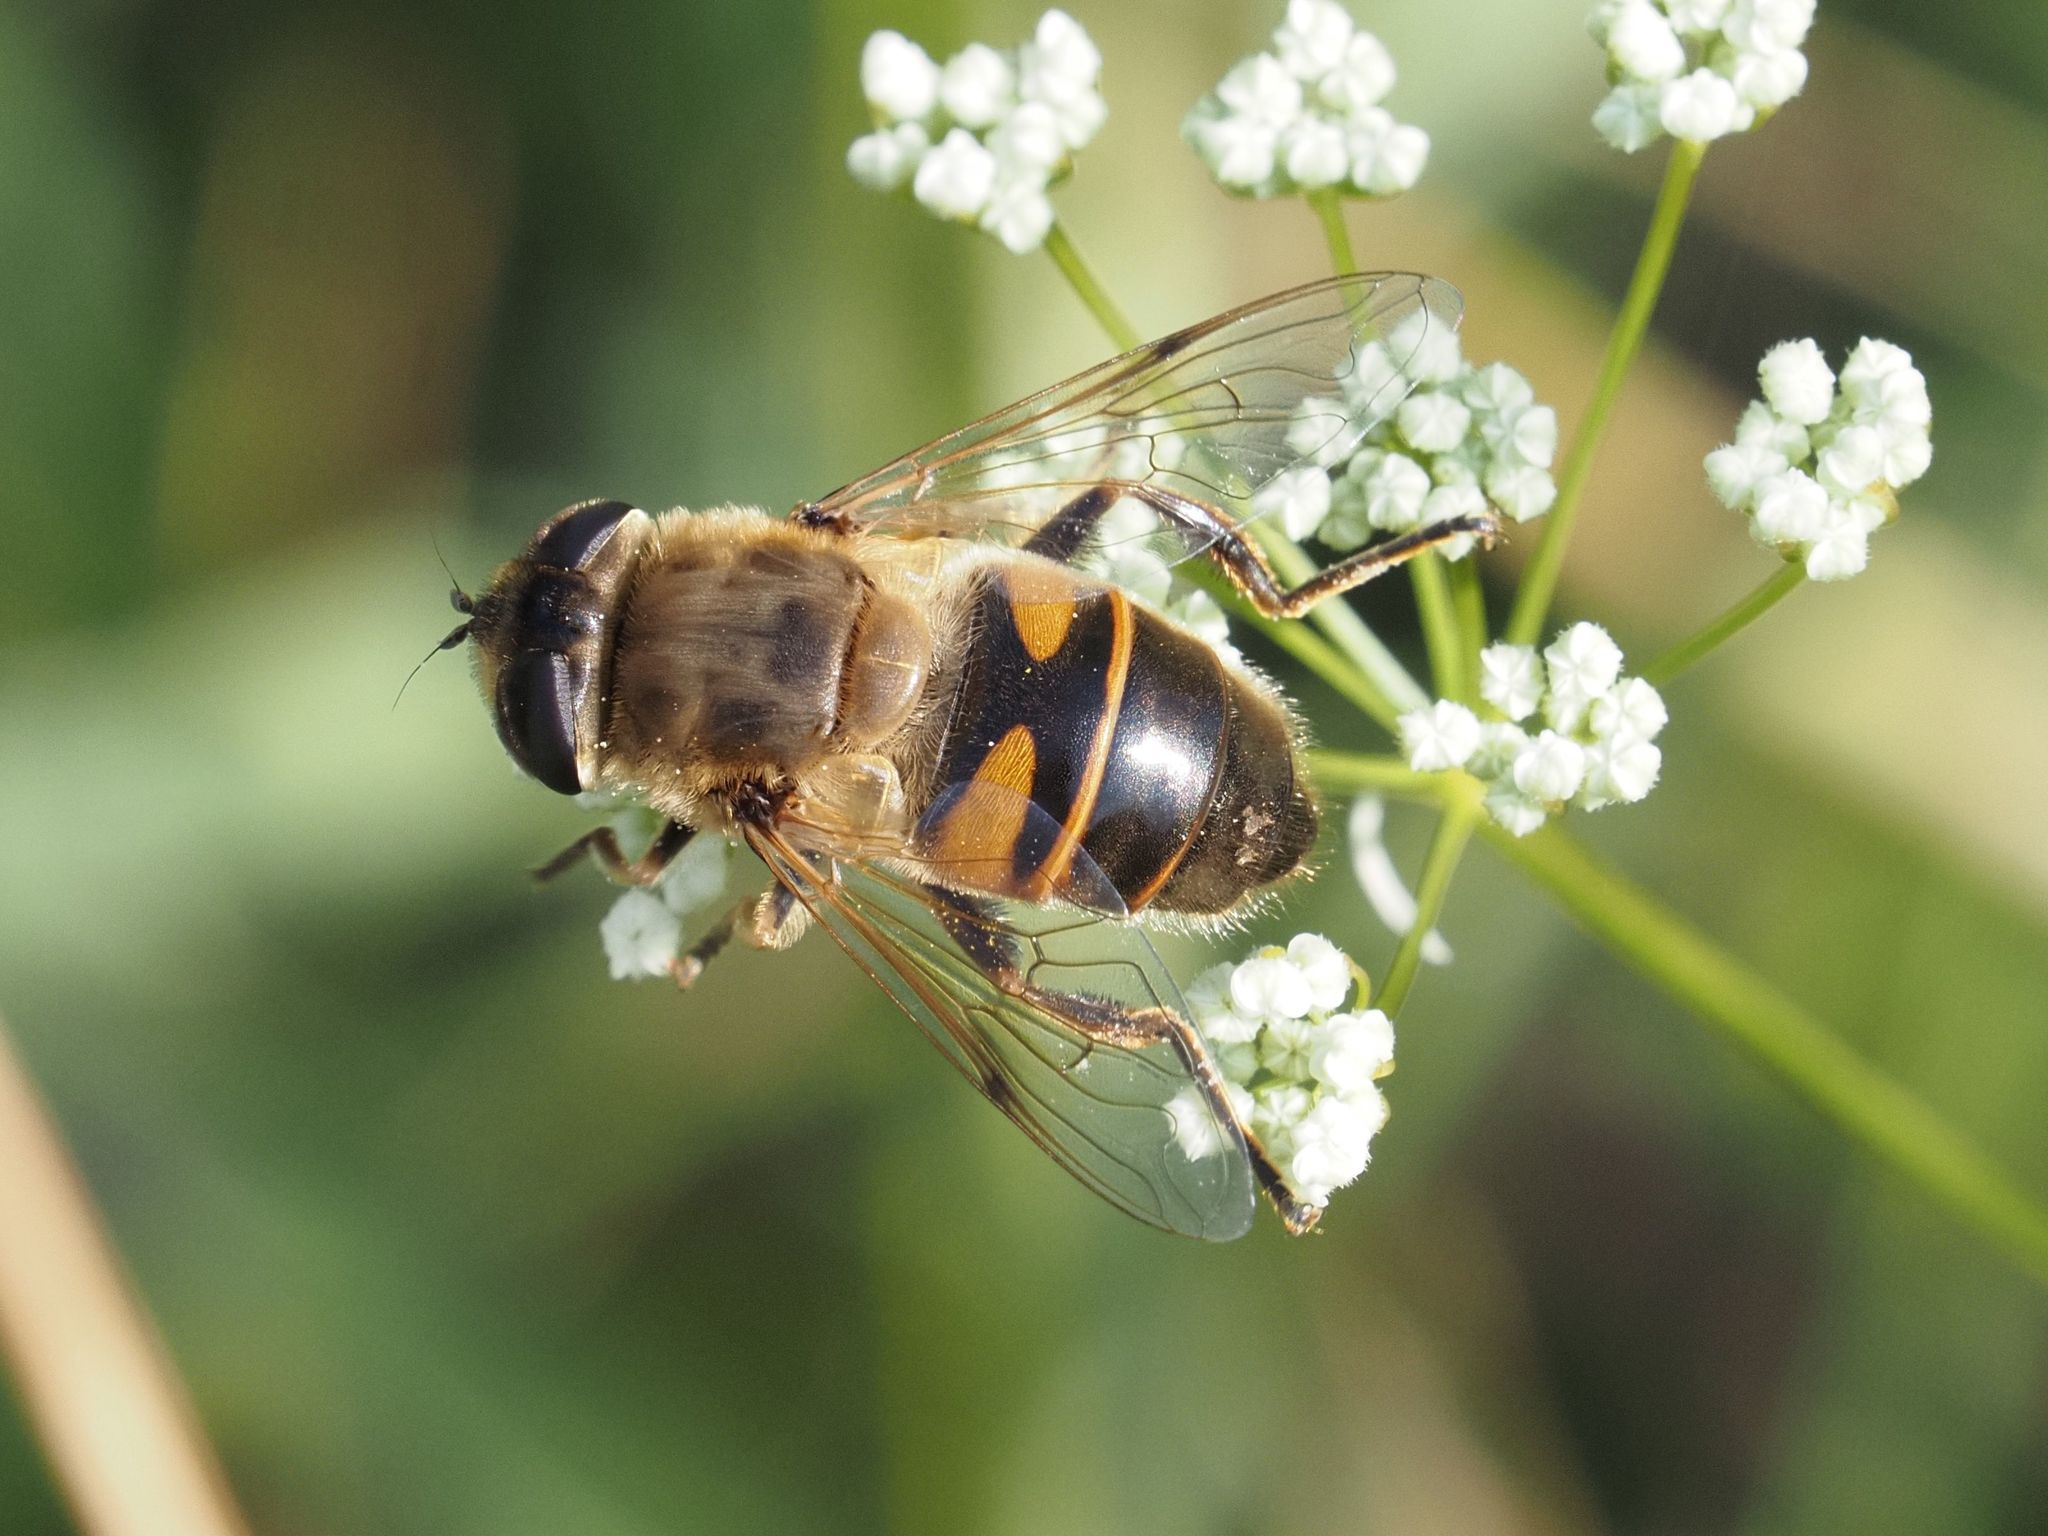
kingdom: Animalia
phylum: Arthropoda
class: Insecta
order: Diptera
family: Syrphidae
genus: Eristalis
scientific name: Eristalis tenax
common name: Drone fly
